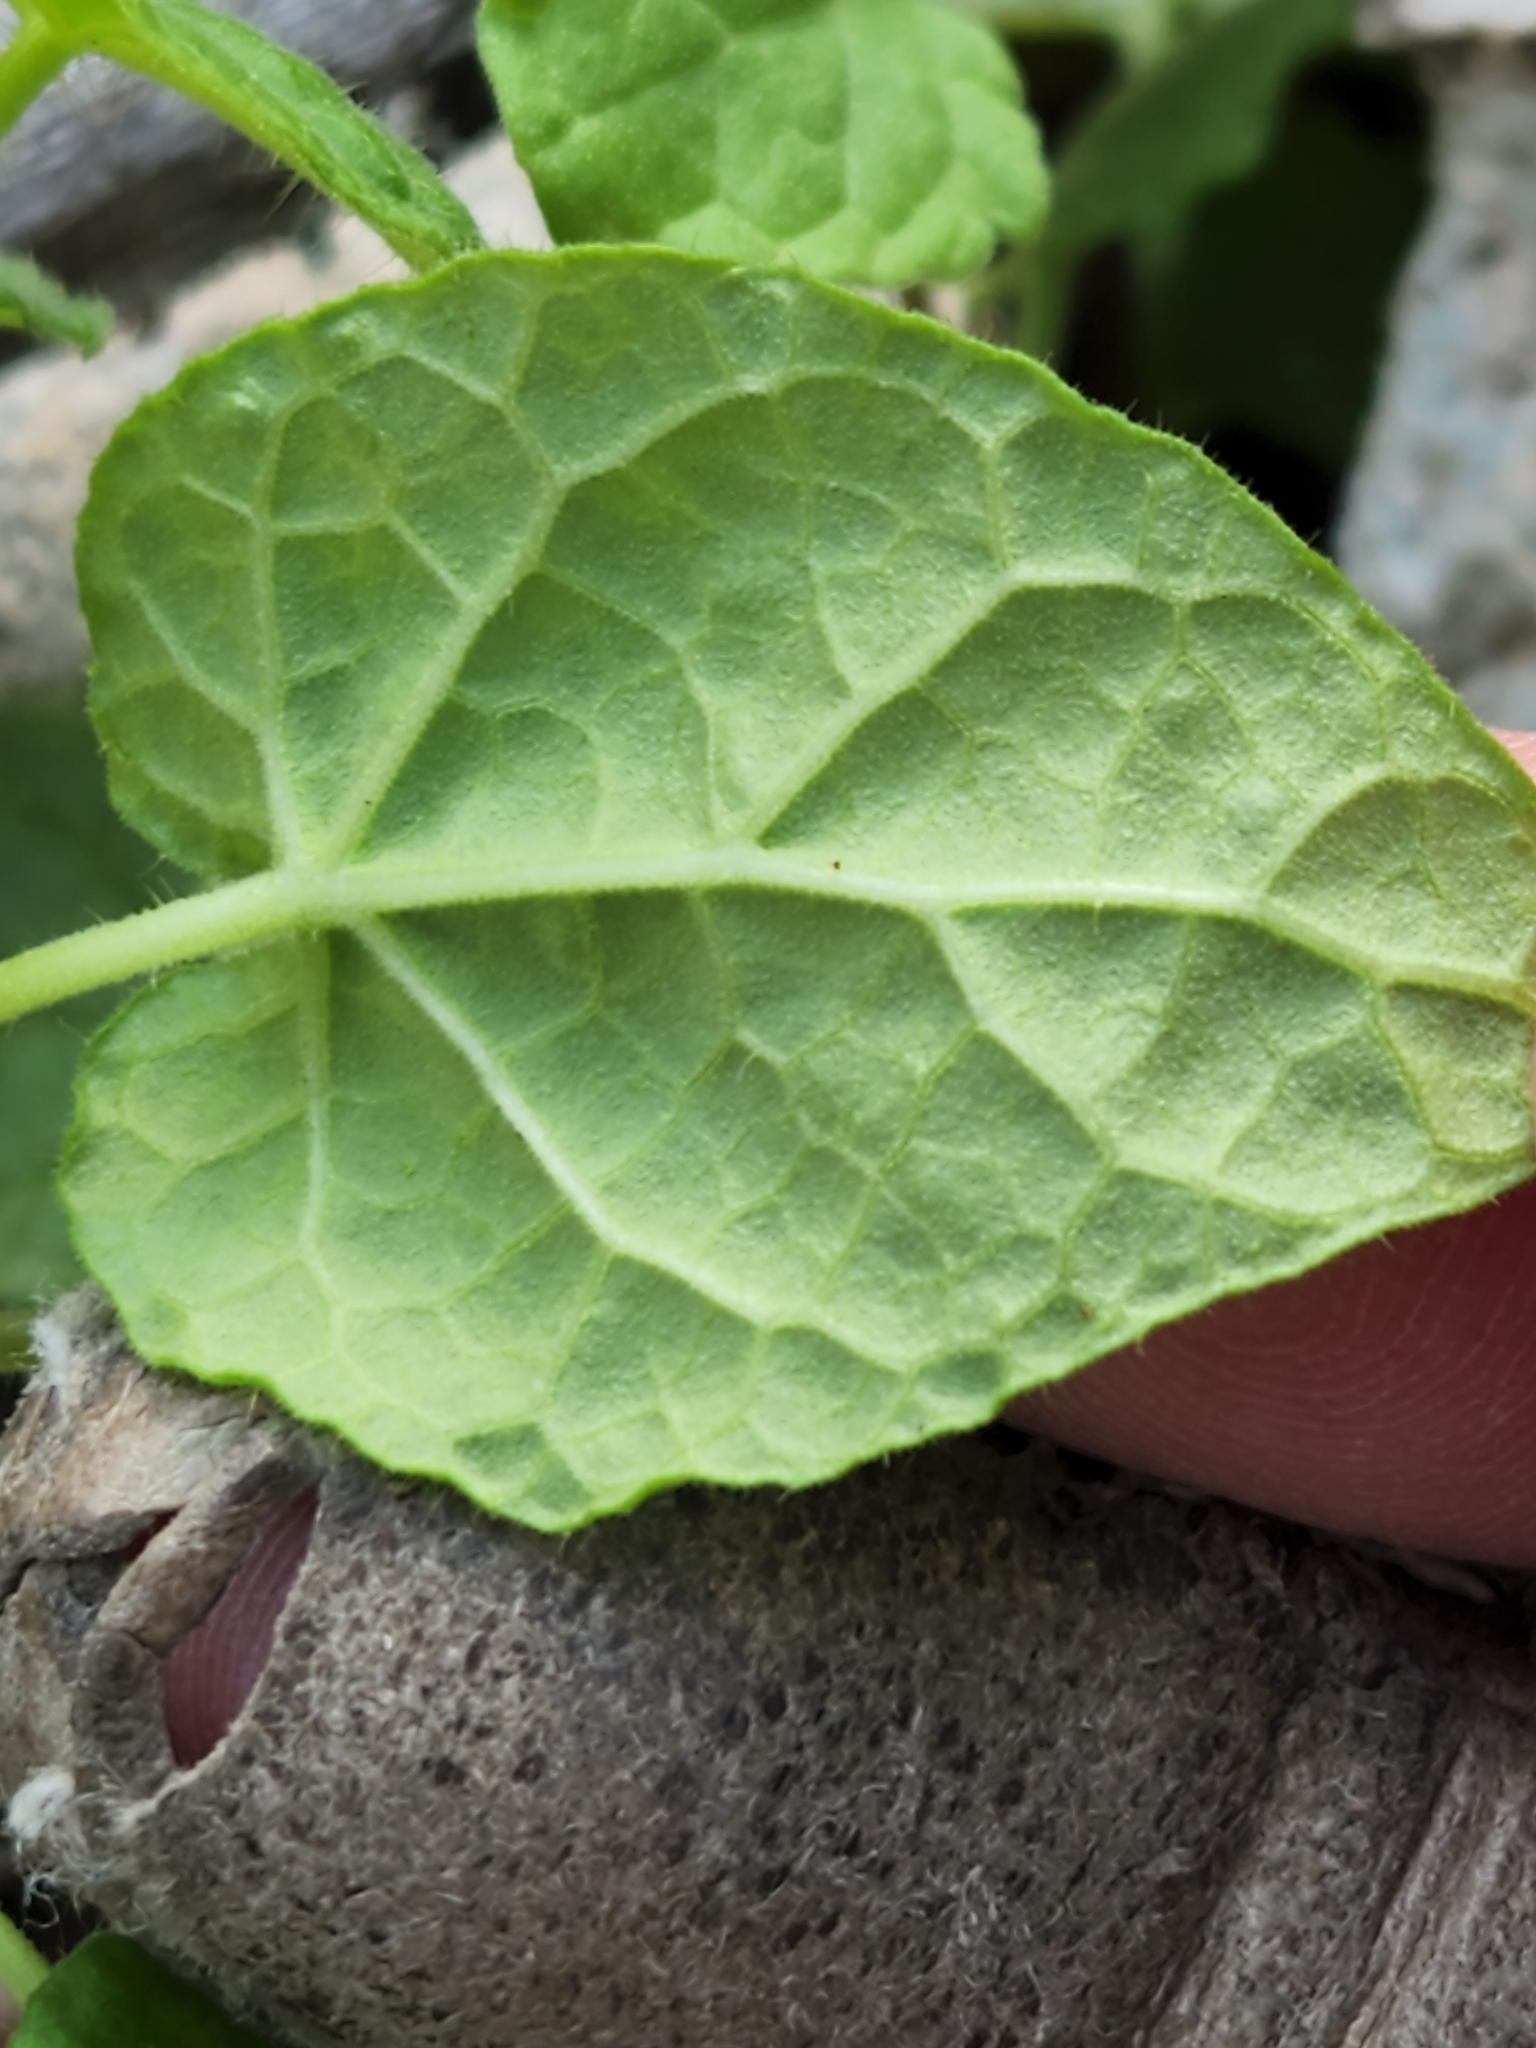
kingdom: Plantae
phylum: Tracheophyta
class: Magnoliopsida
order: Gentianales
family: Apocynaceae
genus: Dictyanthus
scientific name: Dictyanthus reticulatus
